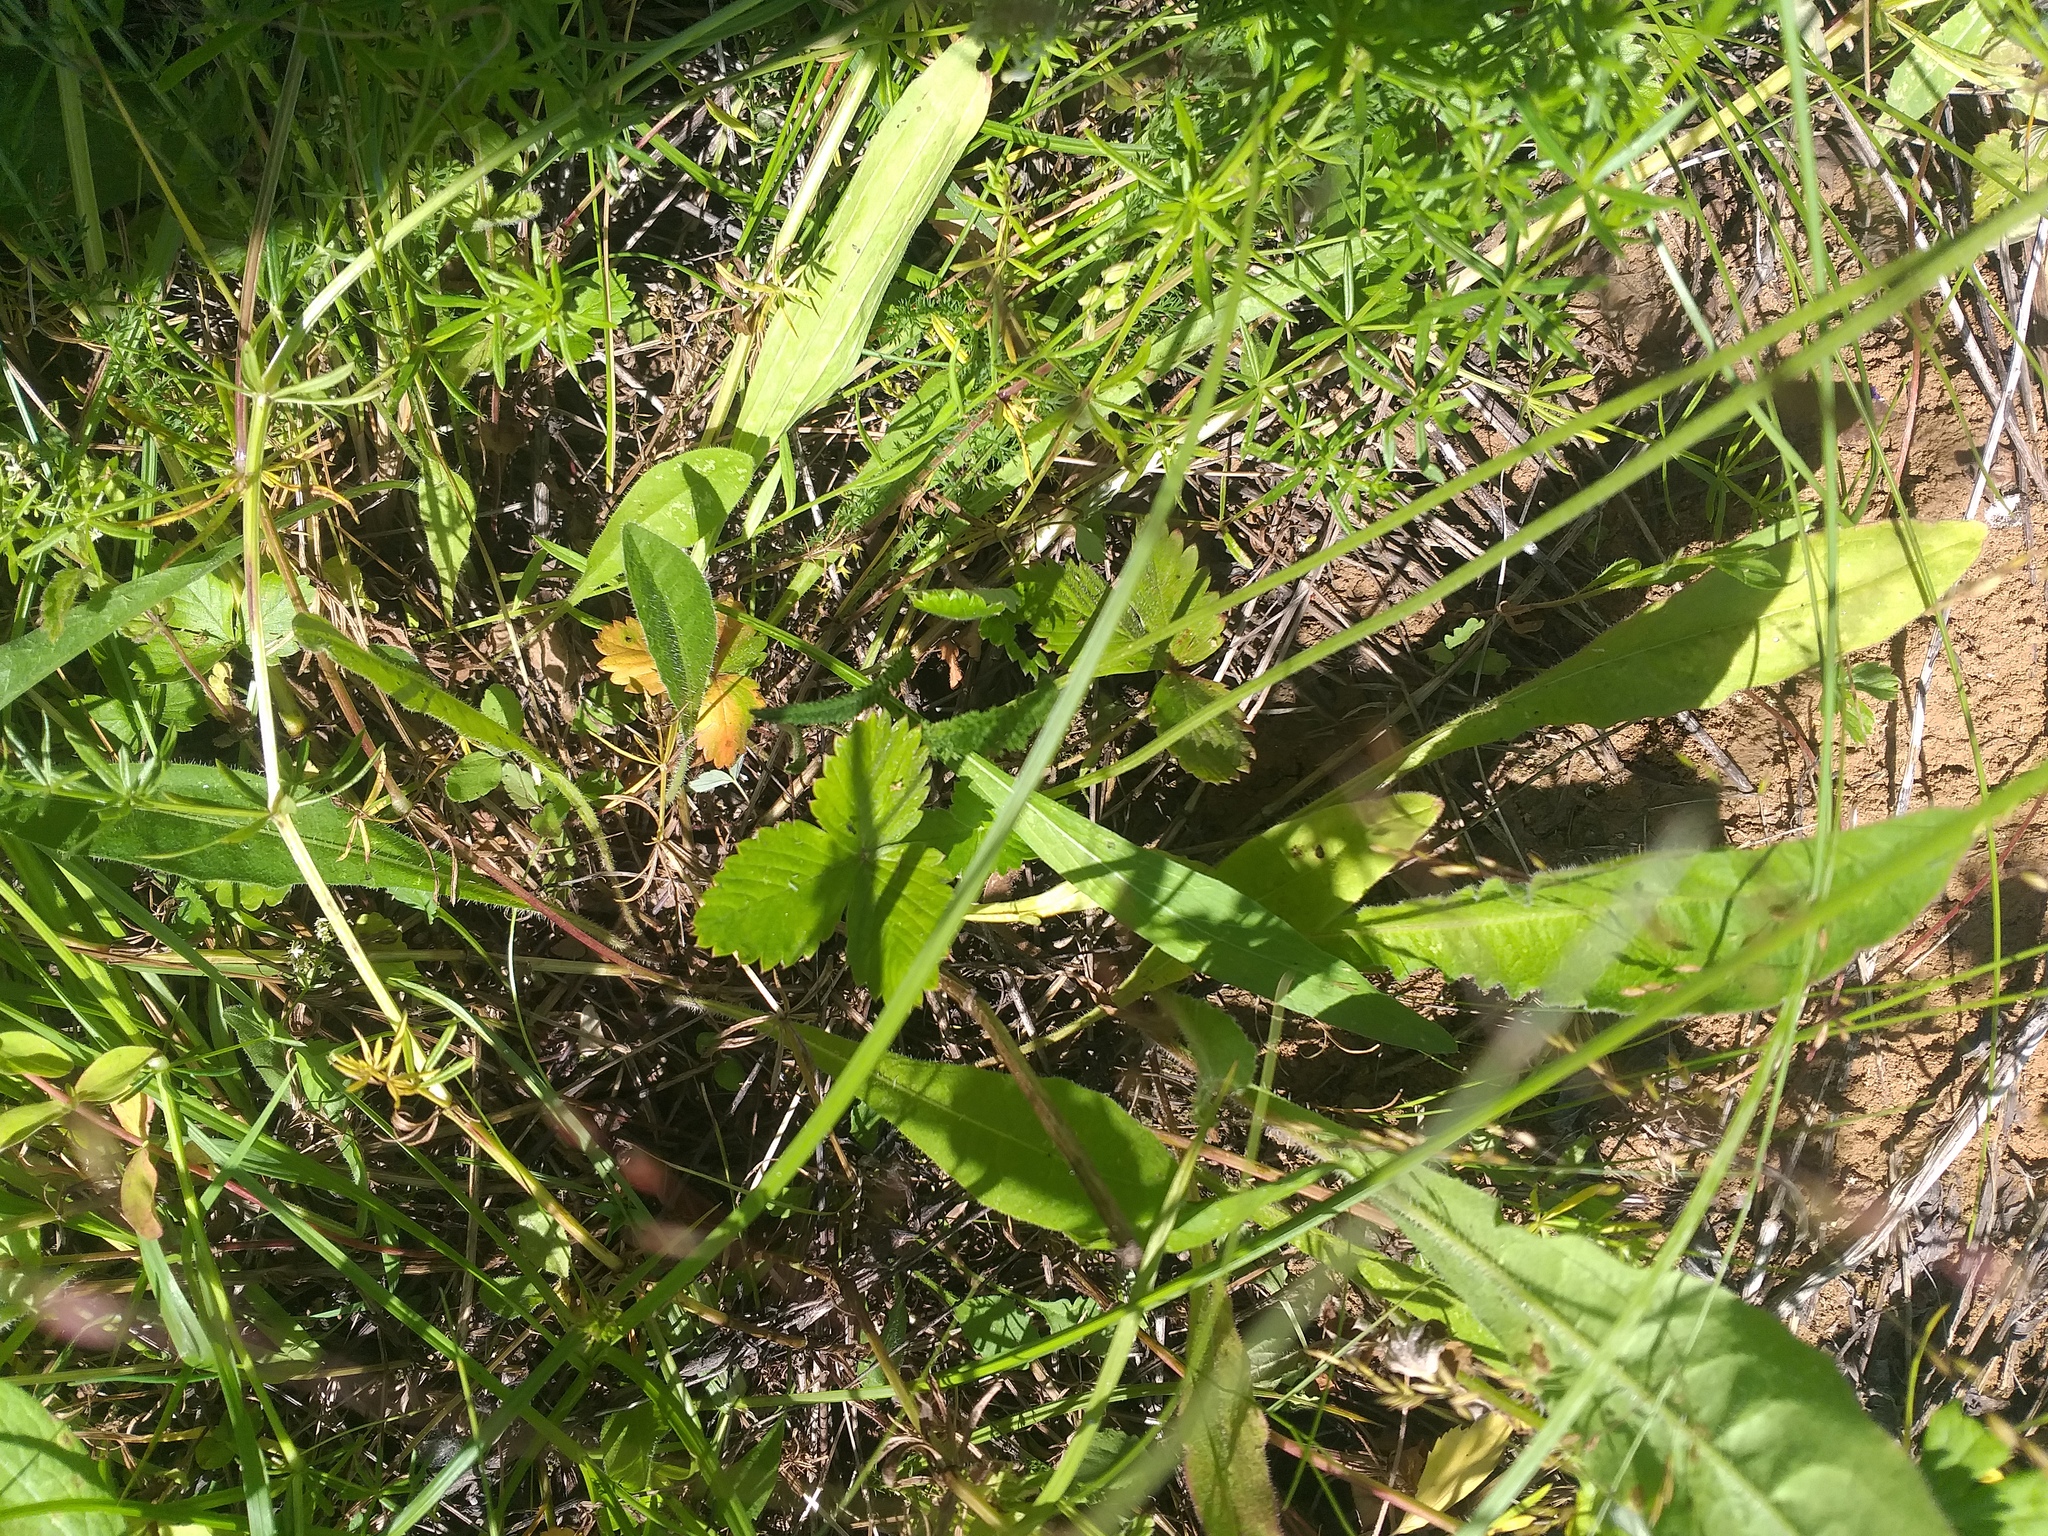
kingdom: Plantae
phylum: Tracheophyta
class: Magnoliopsida
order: Rosales
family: Rosaceae
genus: Fragaria
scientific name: Fragaria vesca
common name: Wild strawberry
